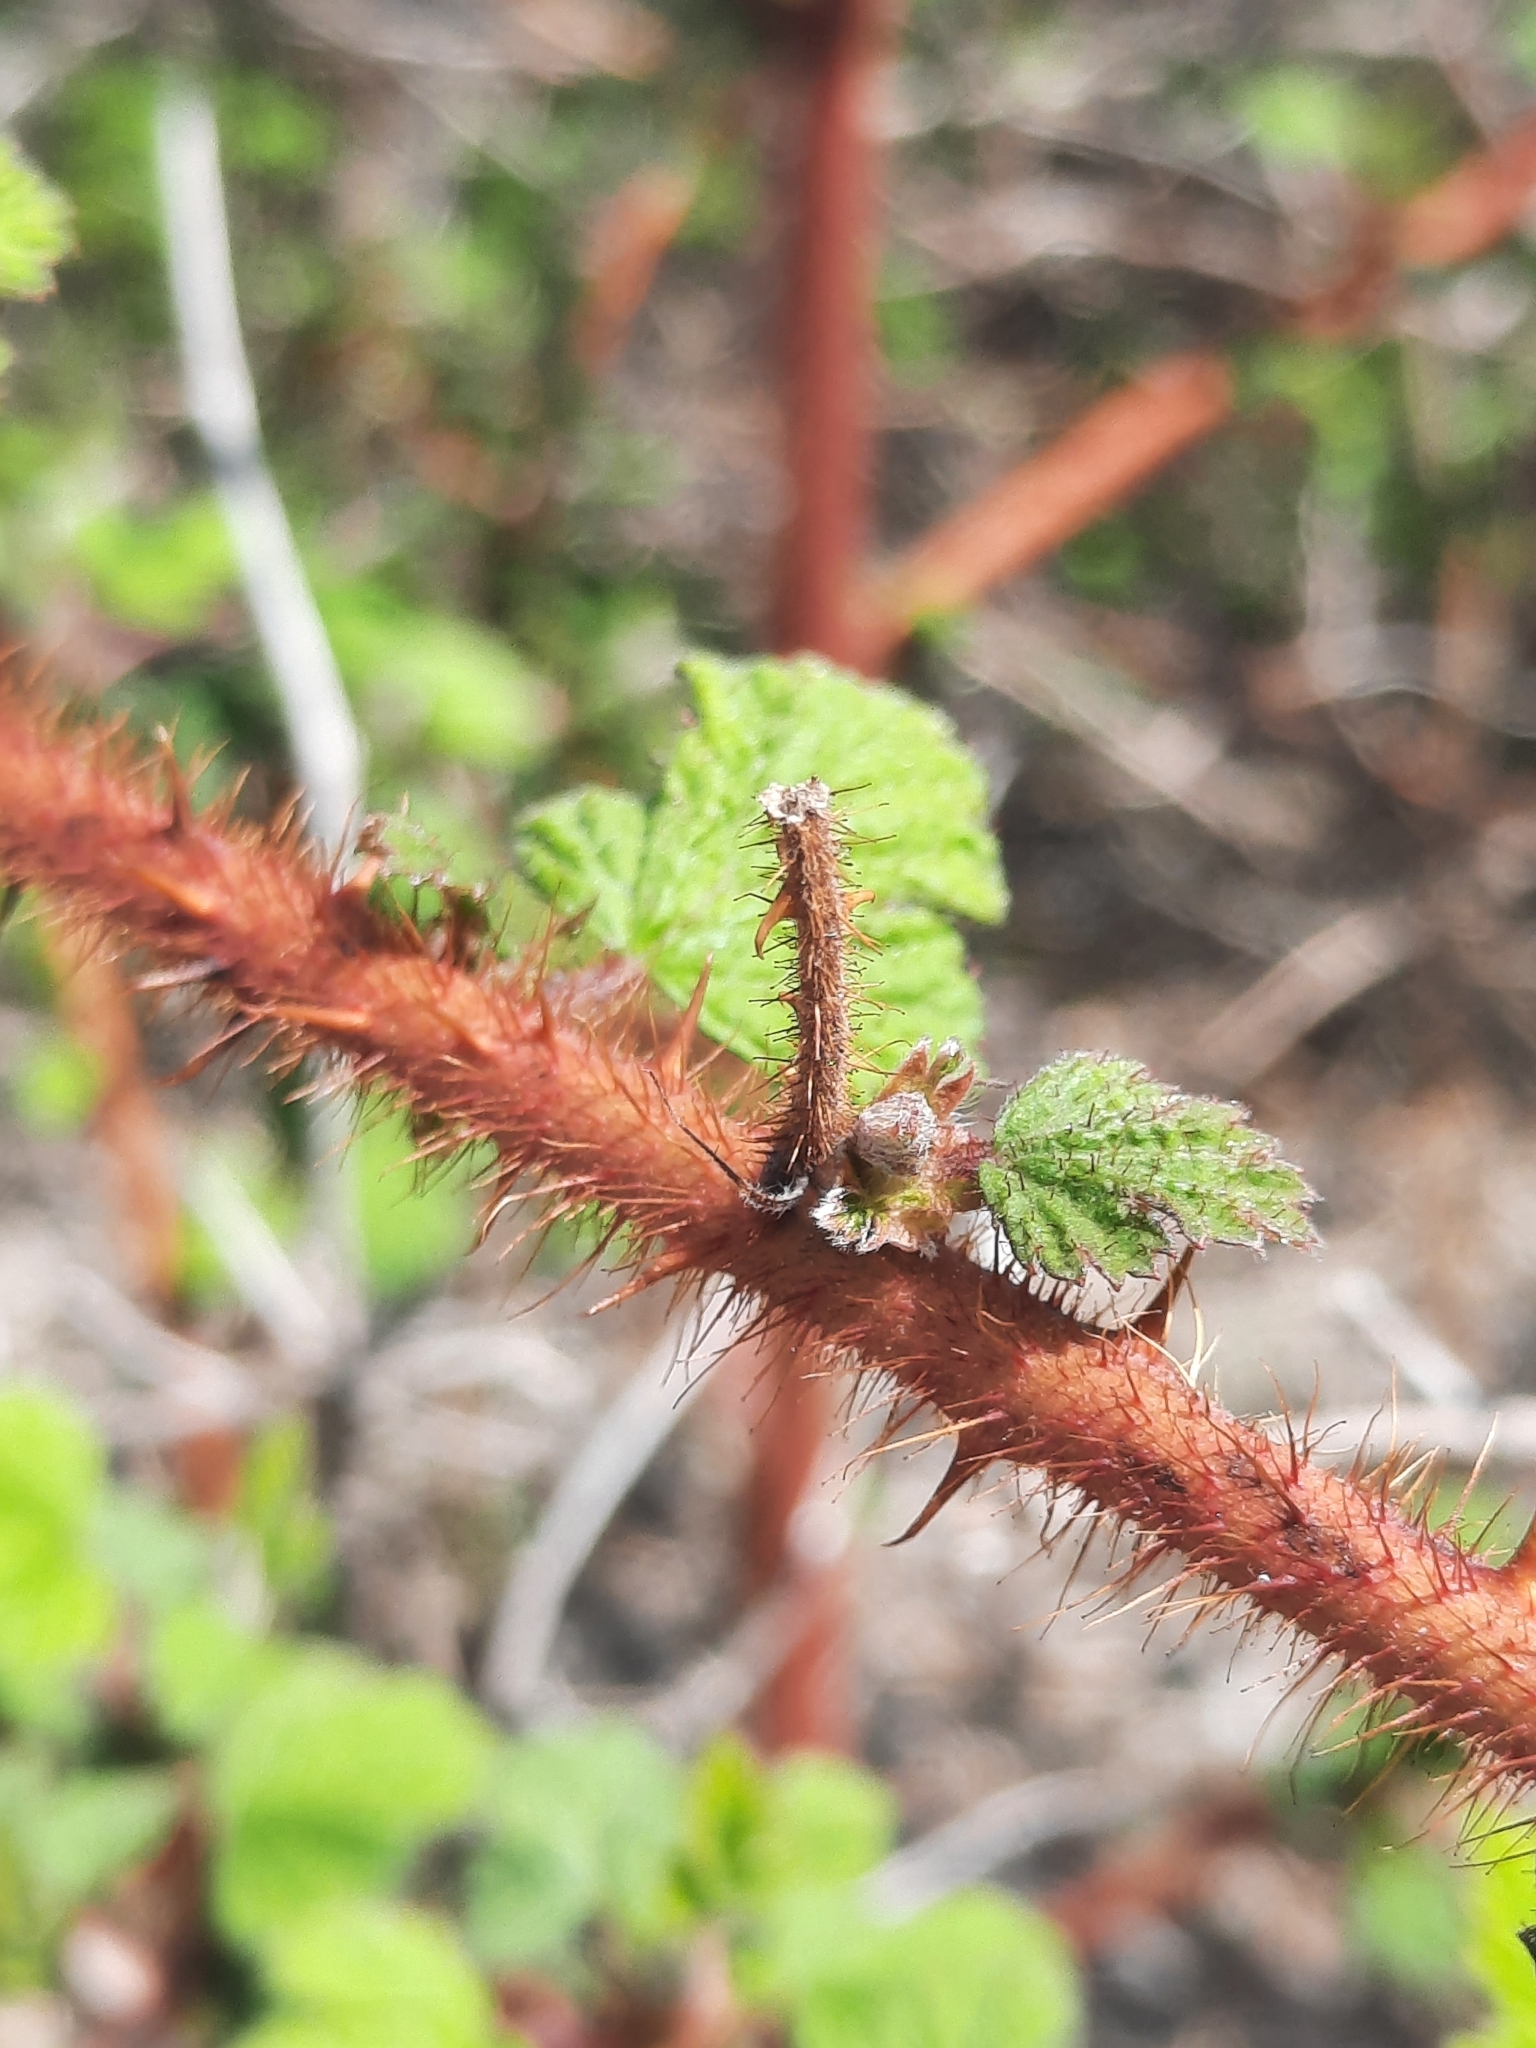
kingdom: Plantae
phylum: Tracheophyta
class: Magnoliopsida
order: Rosales
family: Rosaceae
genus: Rubus
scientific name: Rubus phoenicolasius
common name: Japanese wineberry
